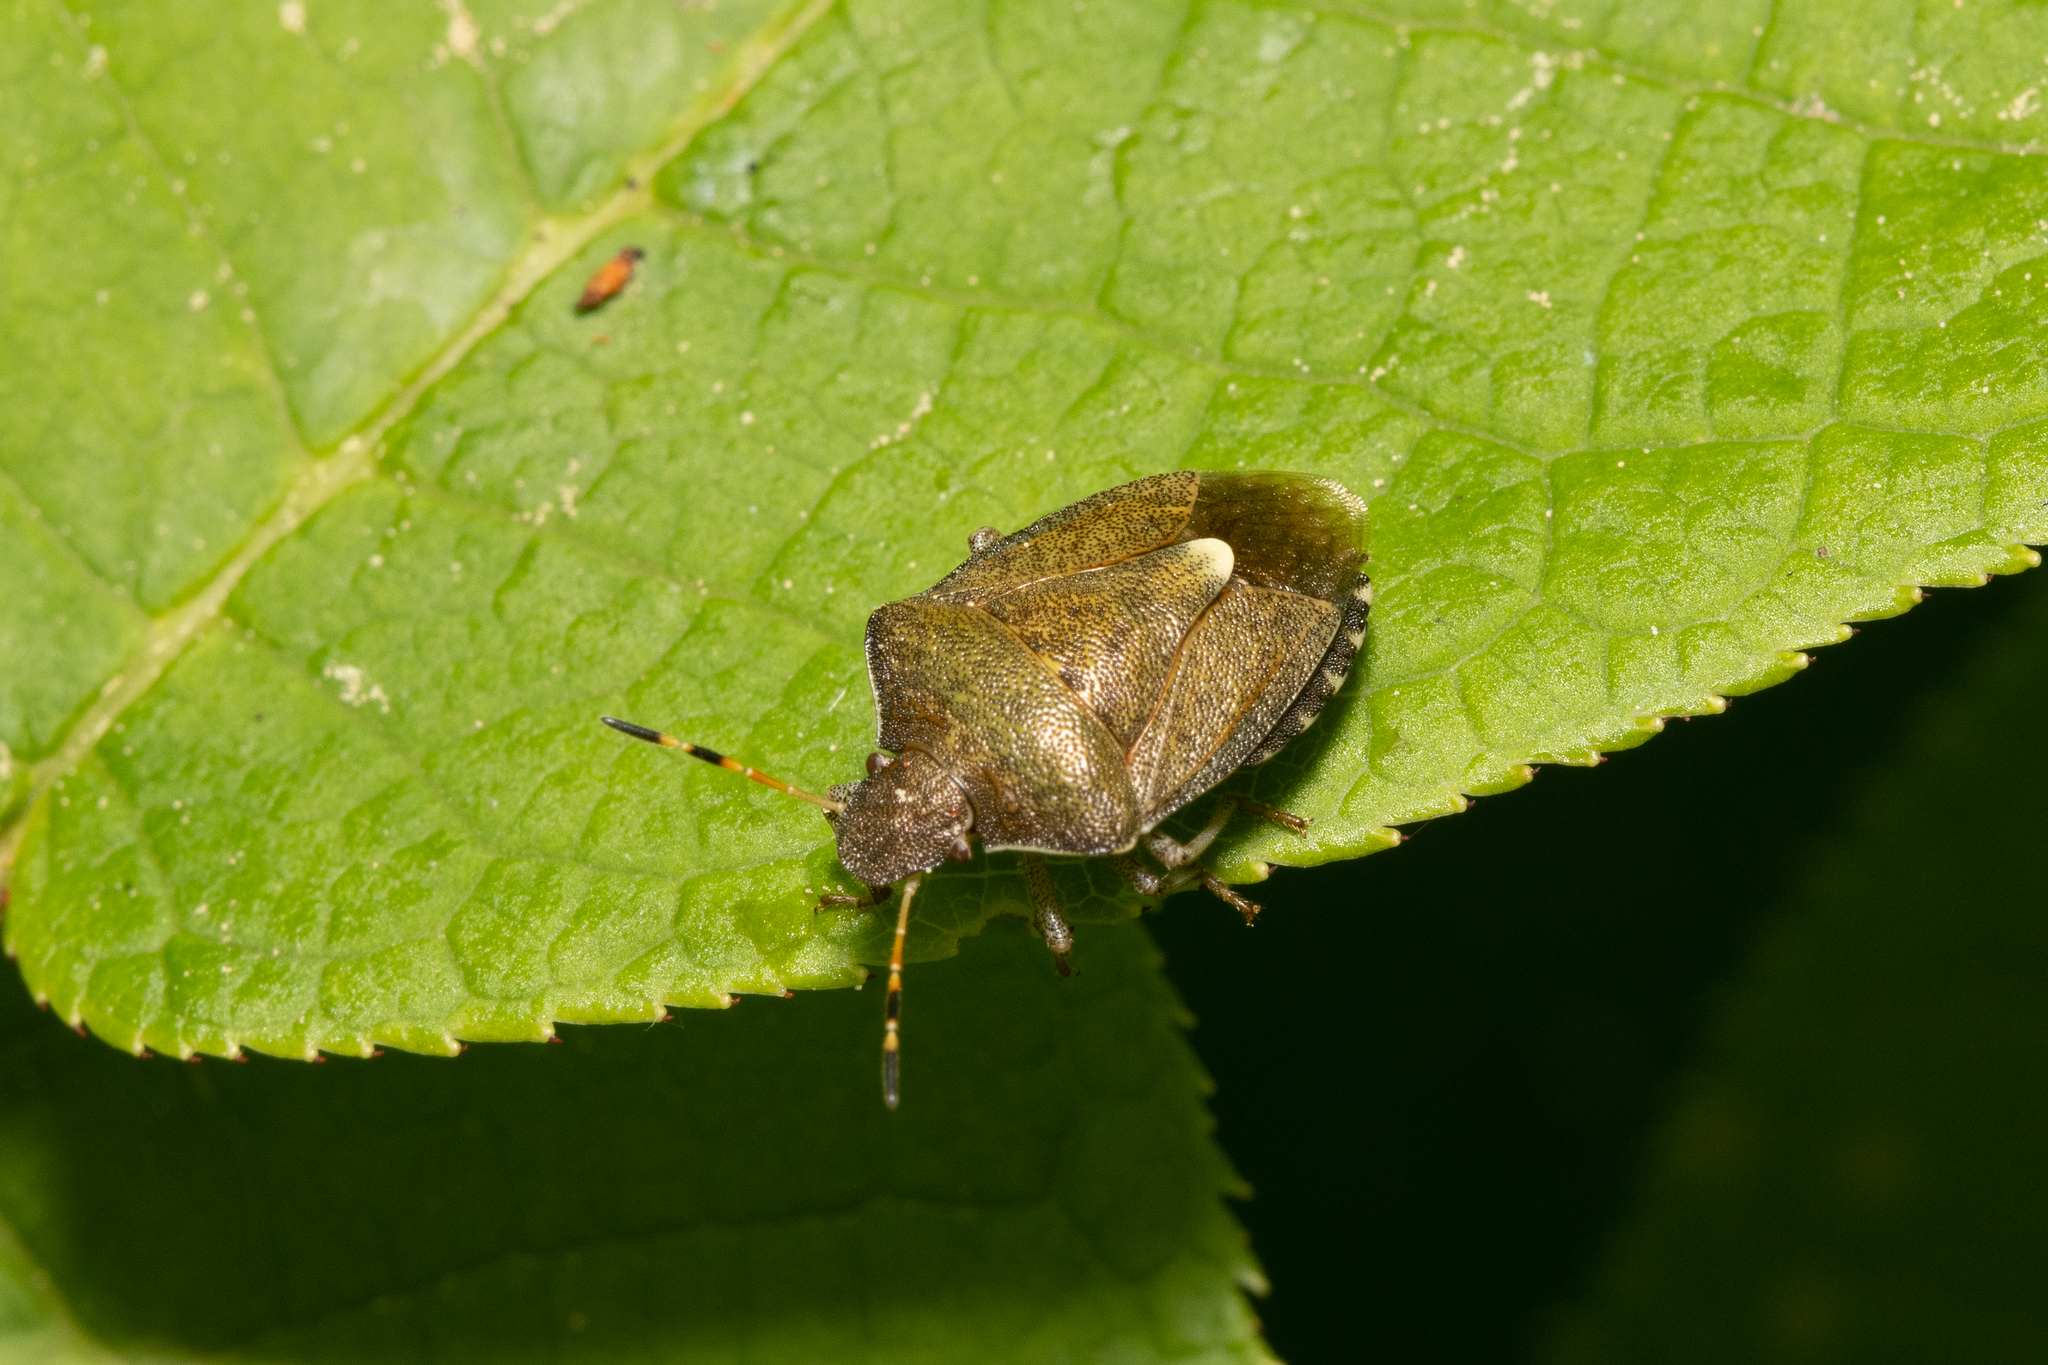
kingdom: Animalia
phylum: Arthropoda
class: Insecta
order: Hemiptera
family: Pentatomidae
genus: Holcostethus
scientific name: Holcostethus strictus
